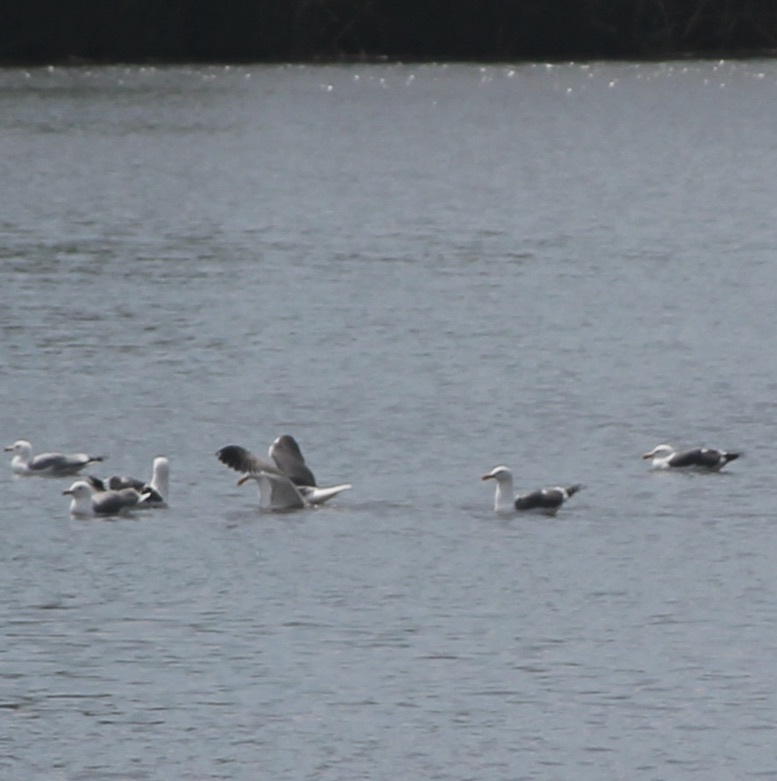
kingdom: Animalia
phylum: Chordata
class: Aves
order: Charadriiformes
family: Laridae
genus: Larus
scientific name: Larus occidentalis
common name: Western gull
